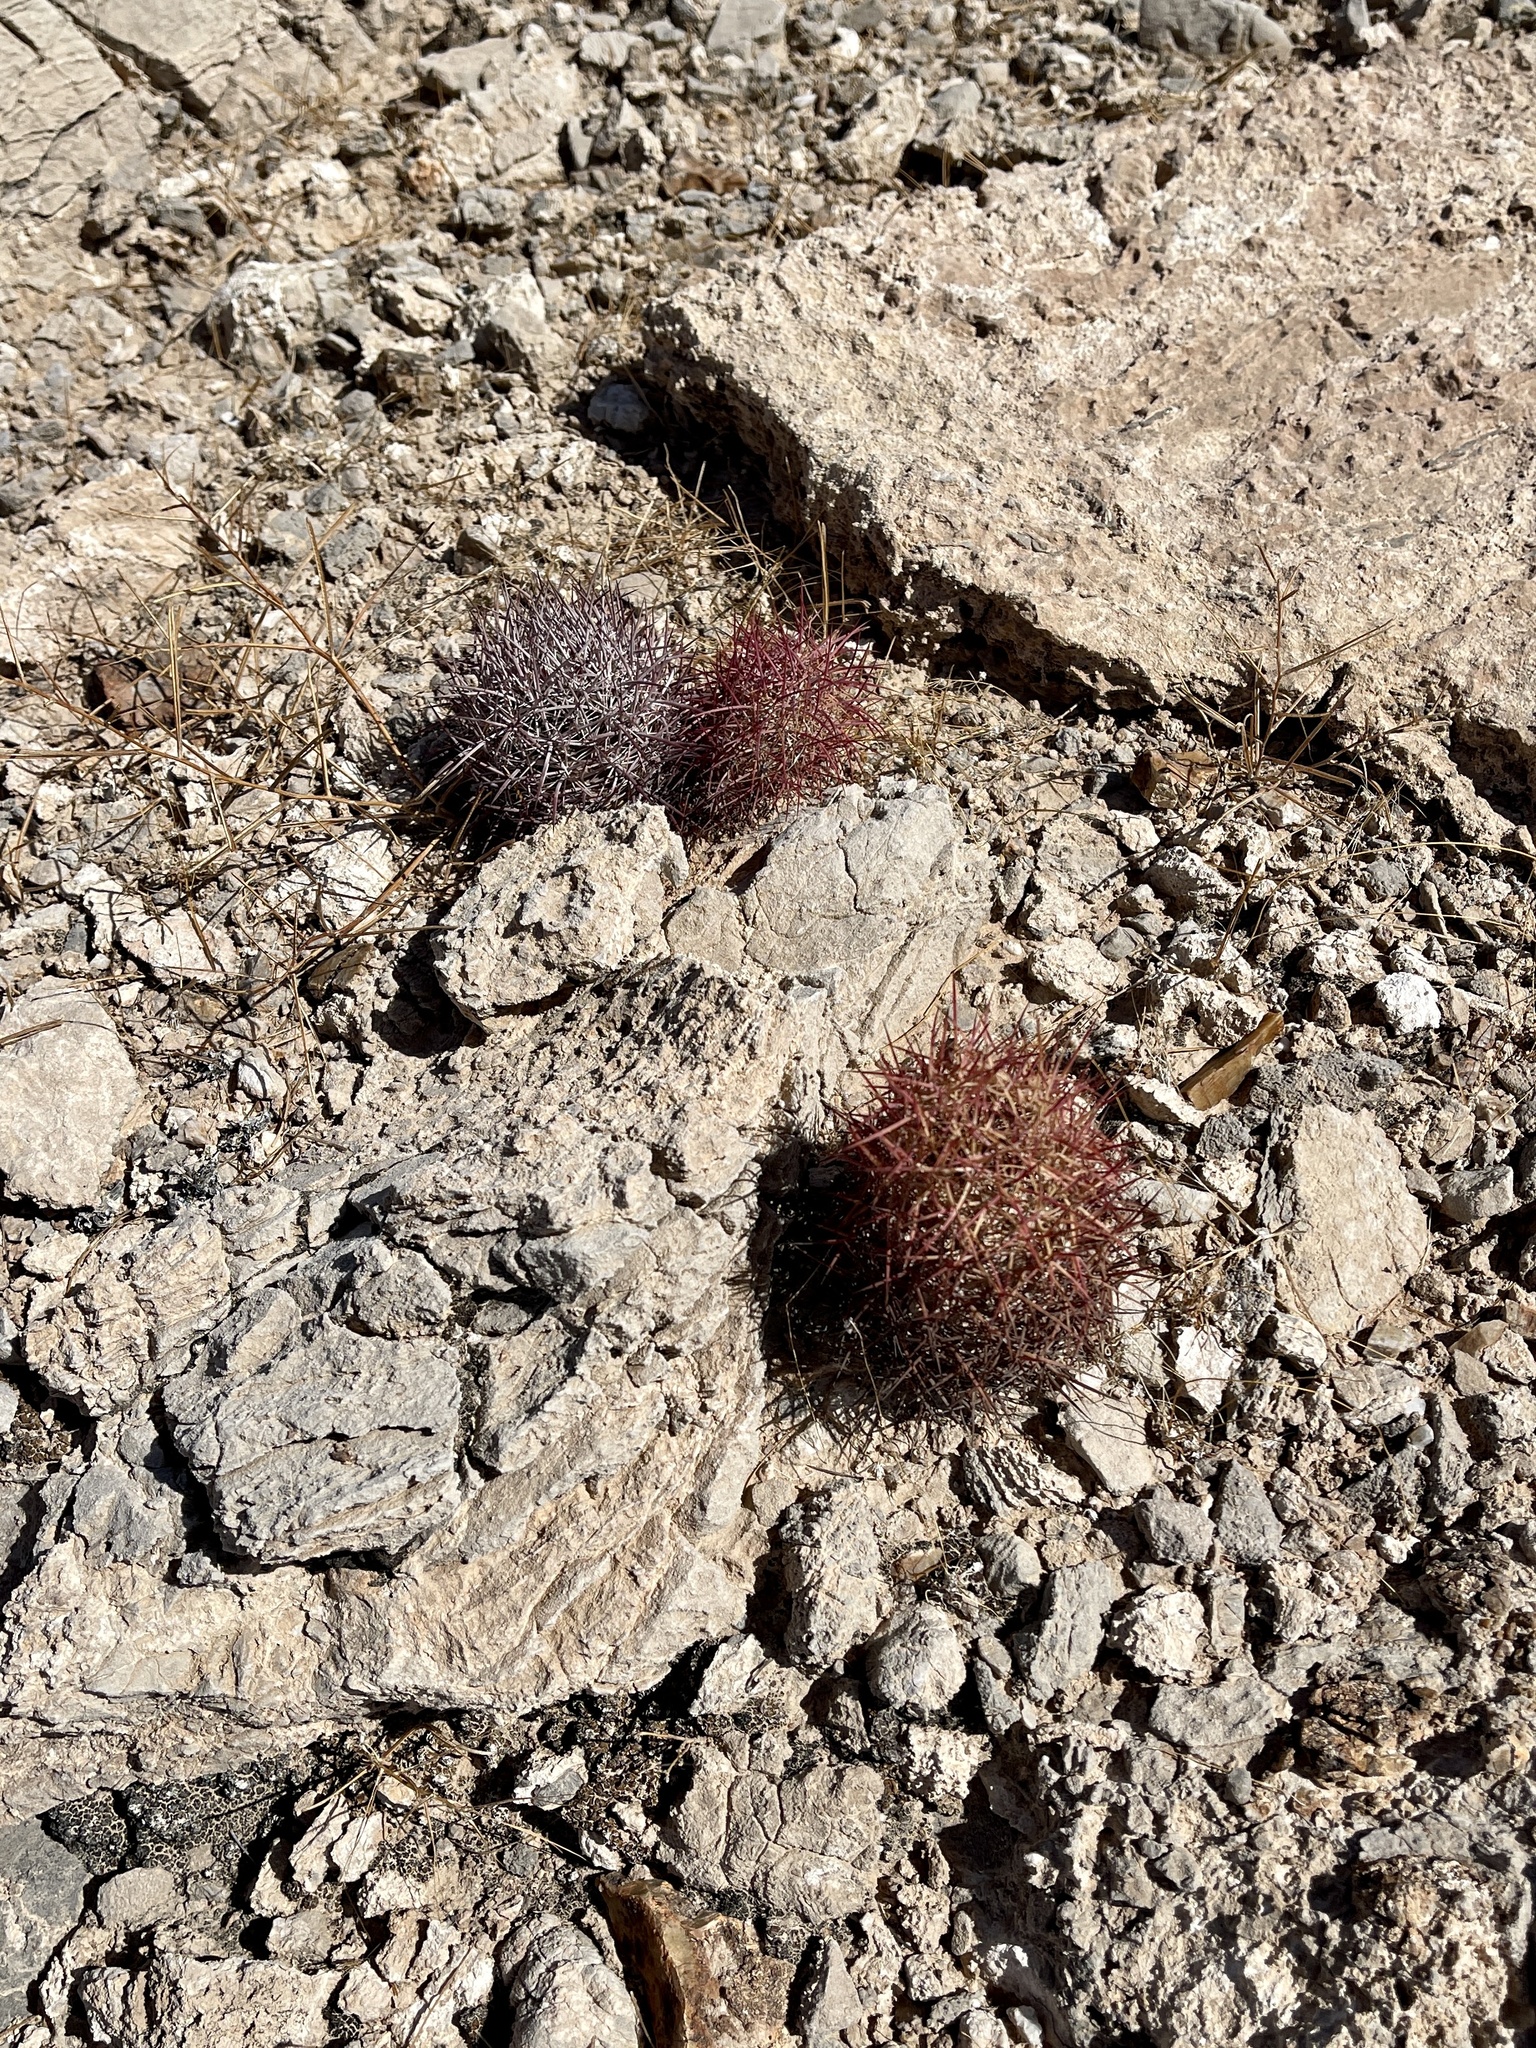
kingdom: Plantae
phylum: Tracheophyta
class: Magnoliopsida
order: Caryophyllales
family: Cactaceae
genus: Sclerocactus
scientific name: Sclerocactus johnsonii
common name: Eight-spine fishhook cactus
